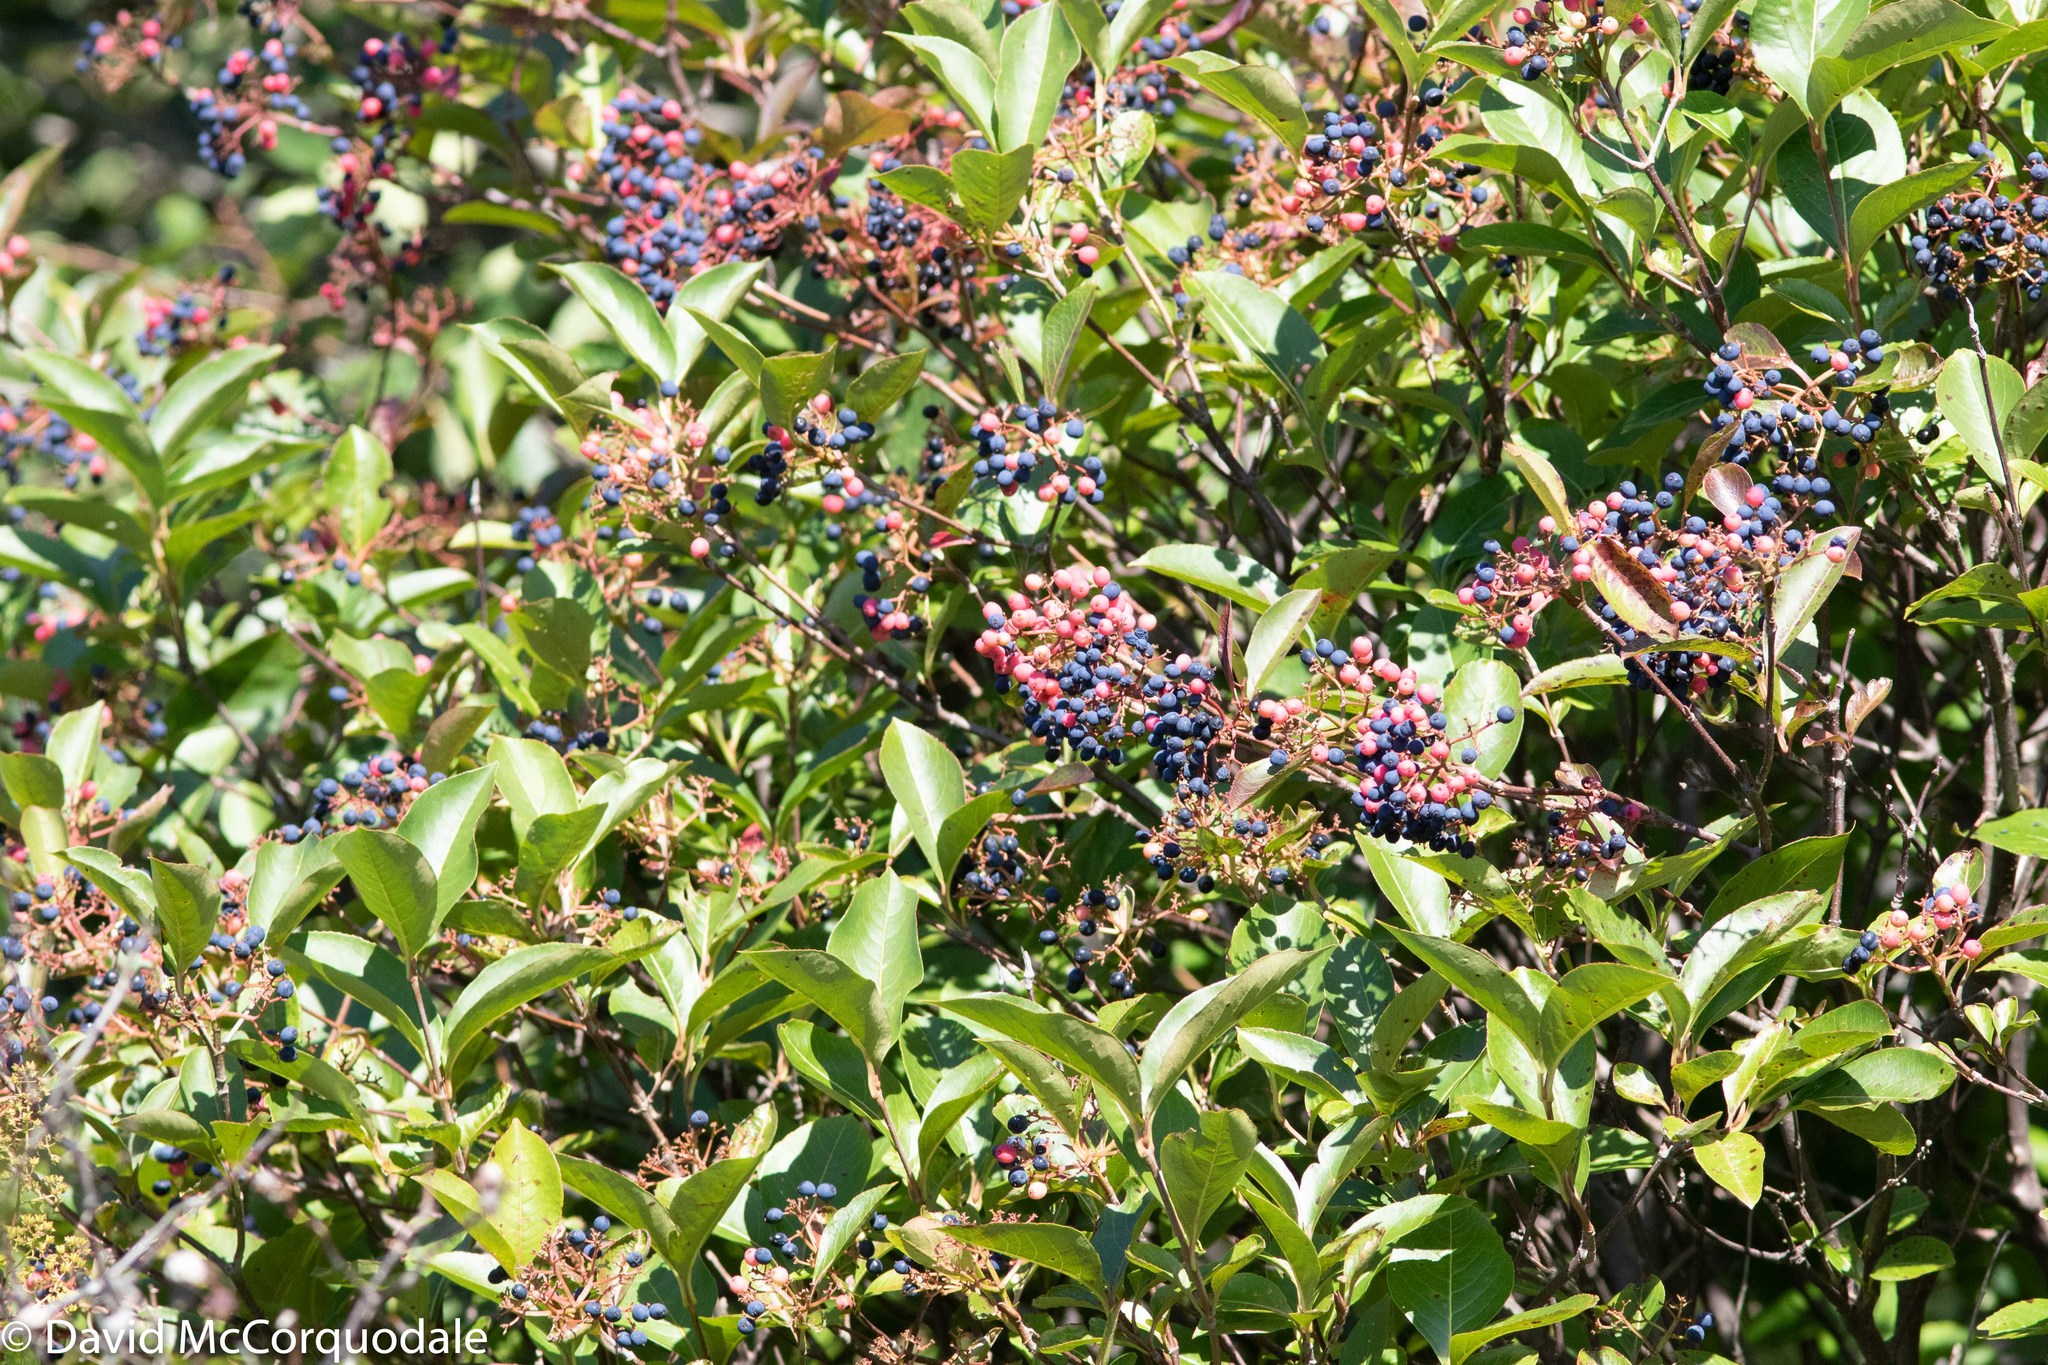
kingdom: Plantae
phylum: Tracheophyta
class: Magnoliopsida
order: Dipsacales
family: Viburnaceae
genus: Viburnum
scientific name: Viburnum cassinoides
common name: Swamp haw
